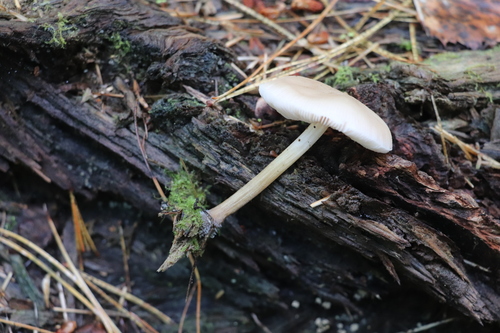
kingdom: Fungi
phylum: Basidiomycota
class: Agaricomycetes
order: Agaricales
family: Pluteaceae
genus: Pluteus
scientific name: Pluteus semibulbosus
